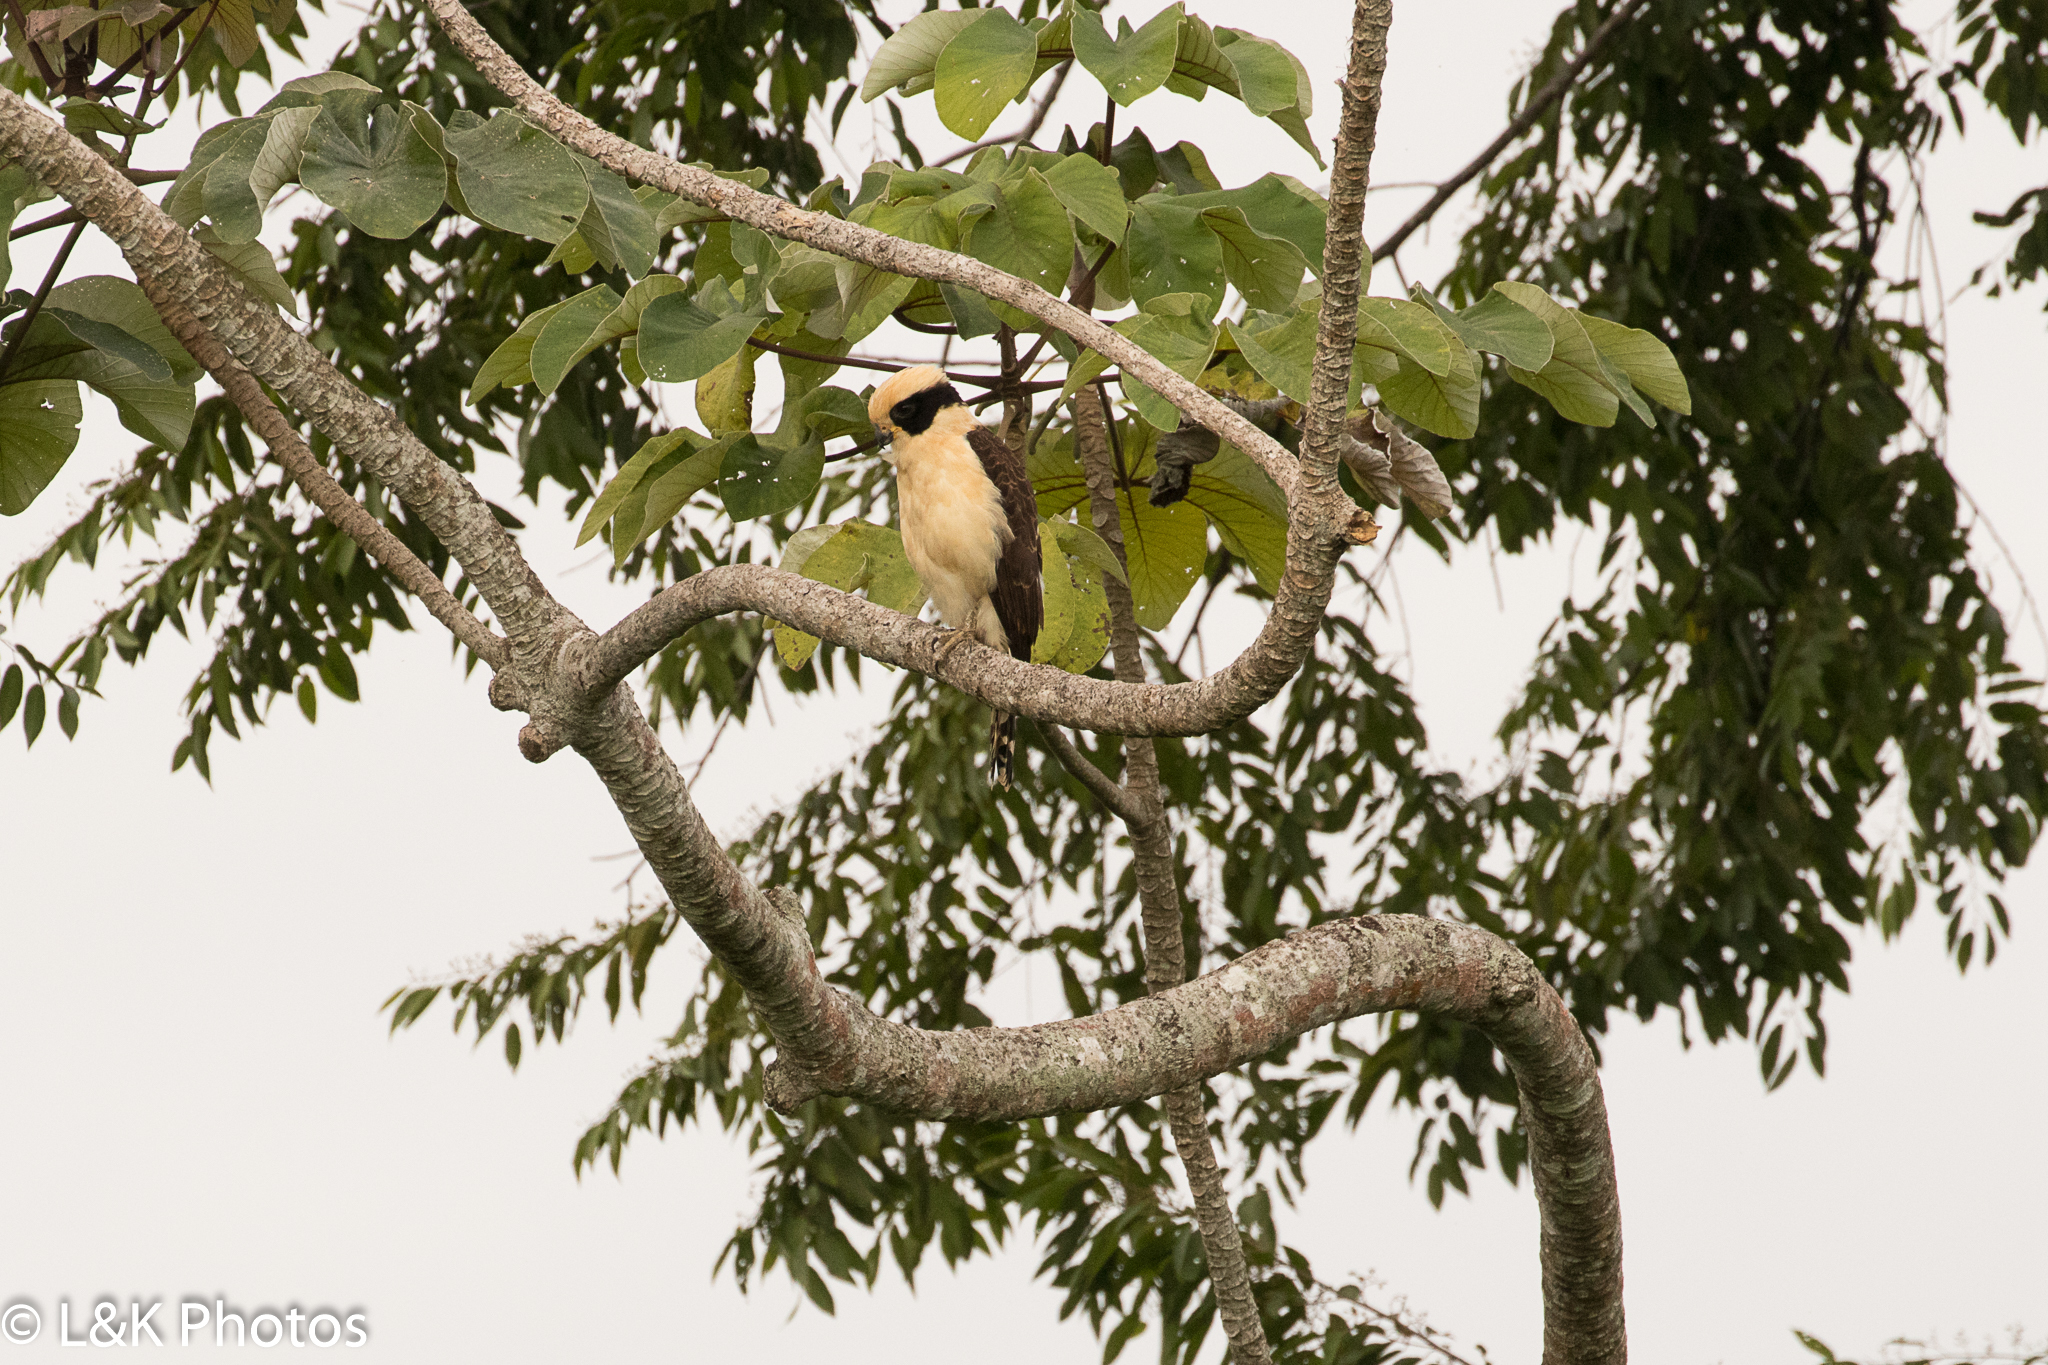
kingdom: Animalia
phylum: Chordata
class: Aves
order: Falconiformes
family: Falconidae
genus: Herpetotheres
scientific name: Herpetotheres cachinnans
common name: Laughing falcon
